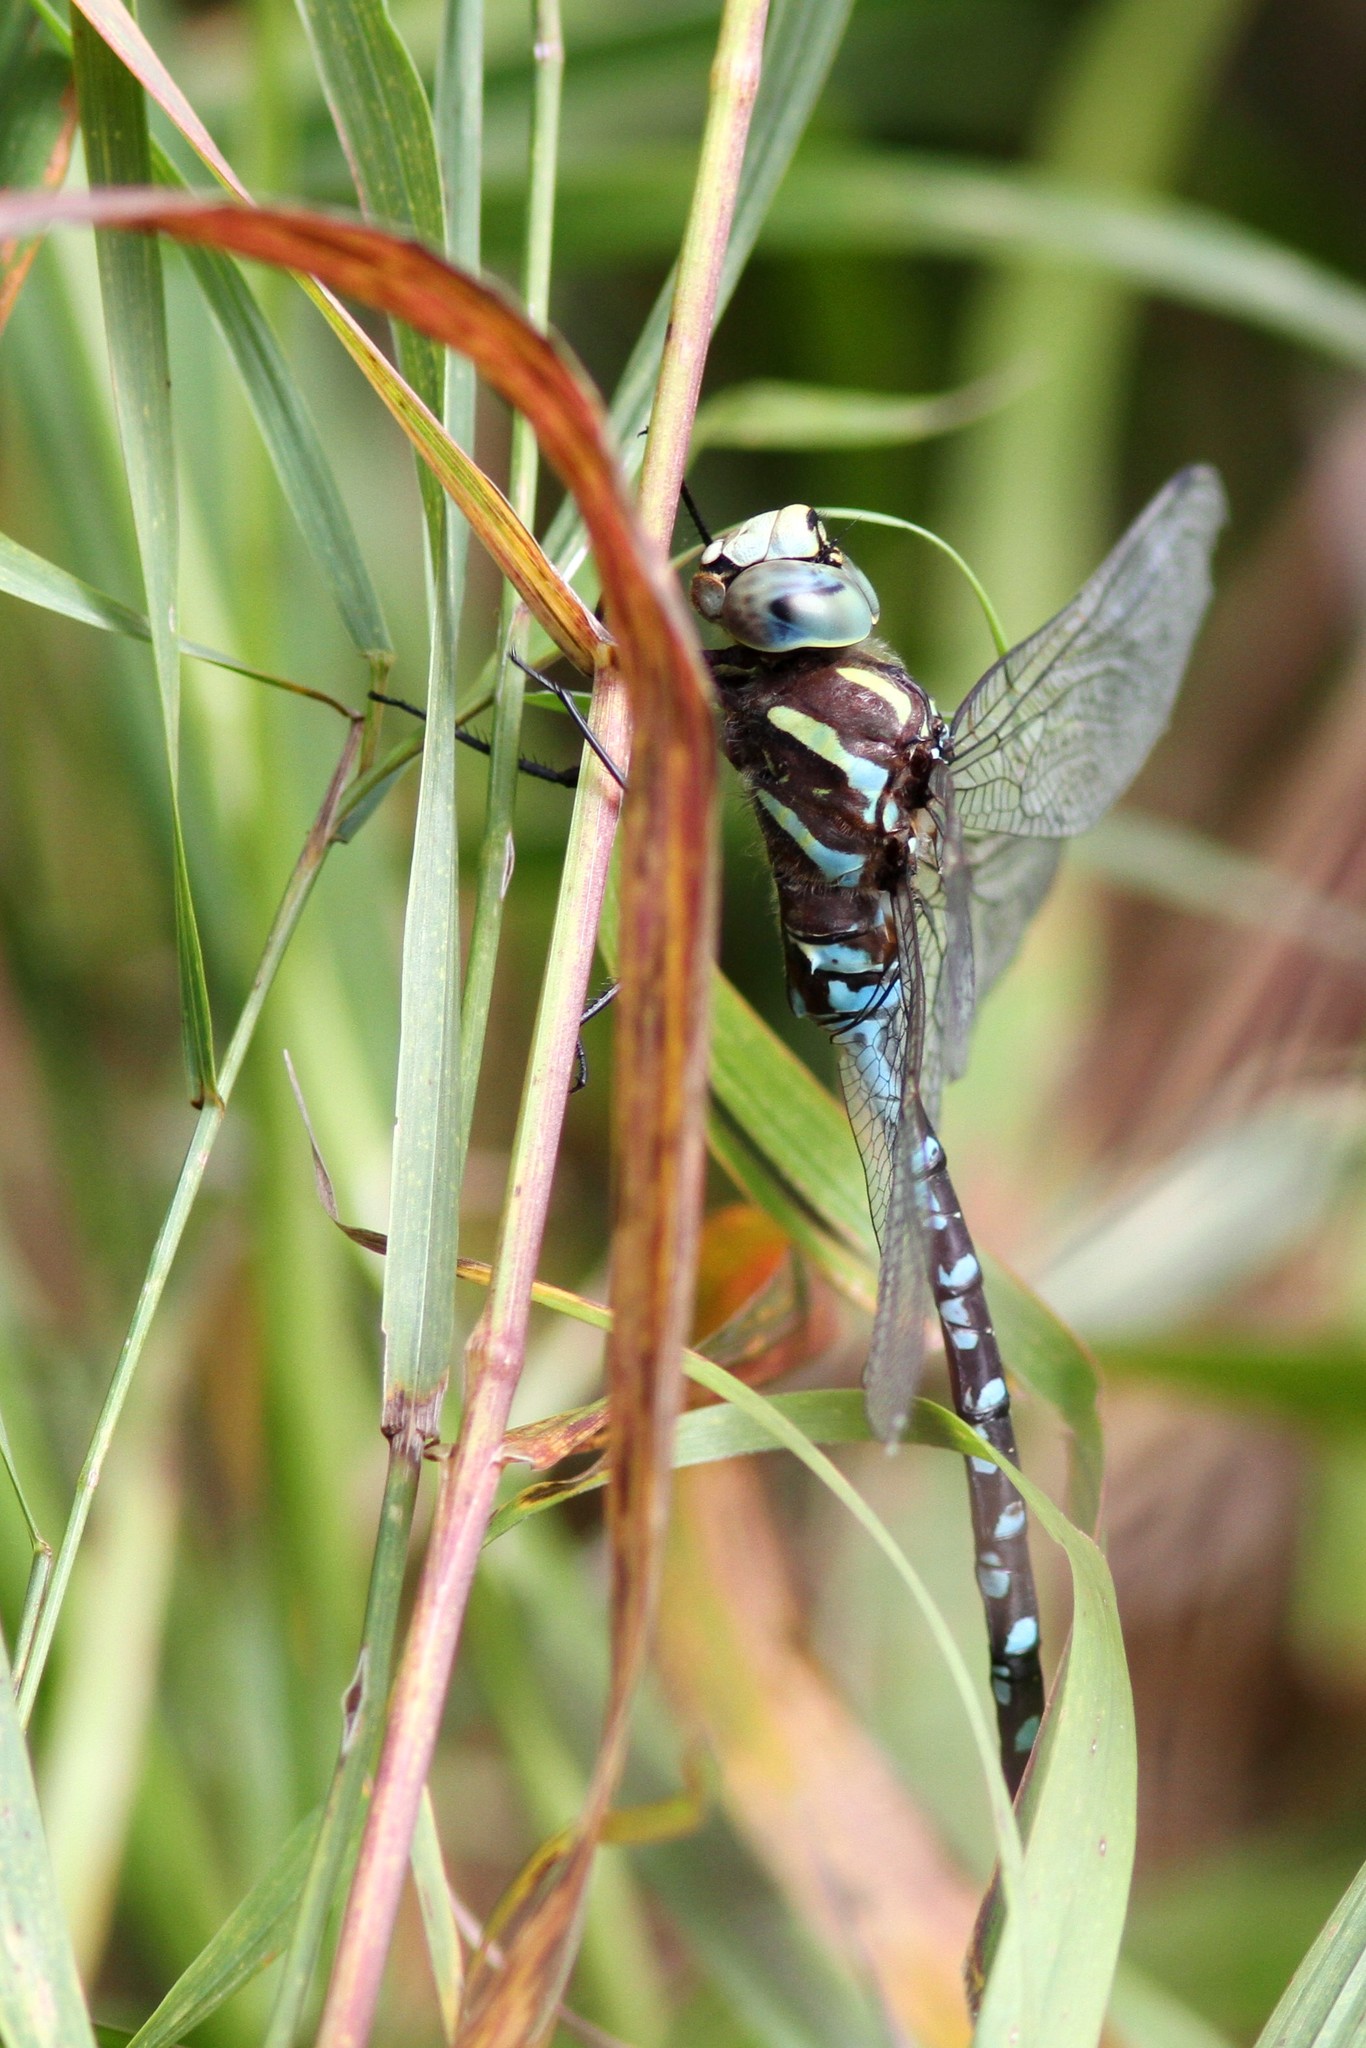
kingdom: Animalia
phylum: Arthropoda
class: Insecta
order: Odonata
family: Aeshnidae
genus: Aeshna
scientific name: Aeshna constricta
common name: Lance-tipped darner
